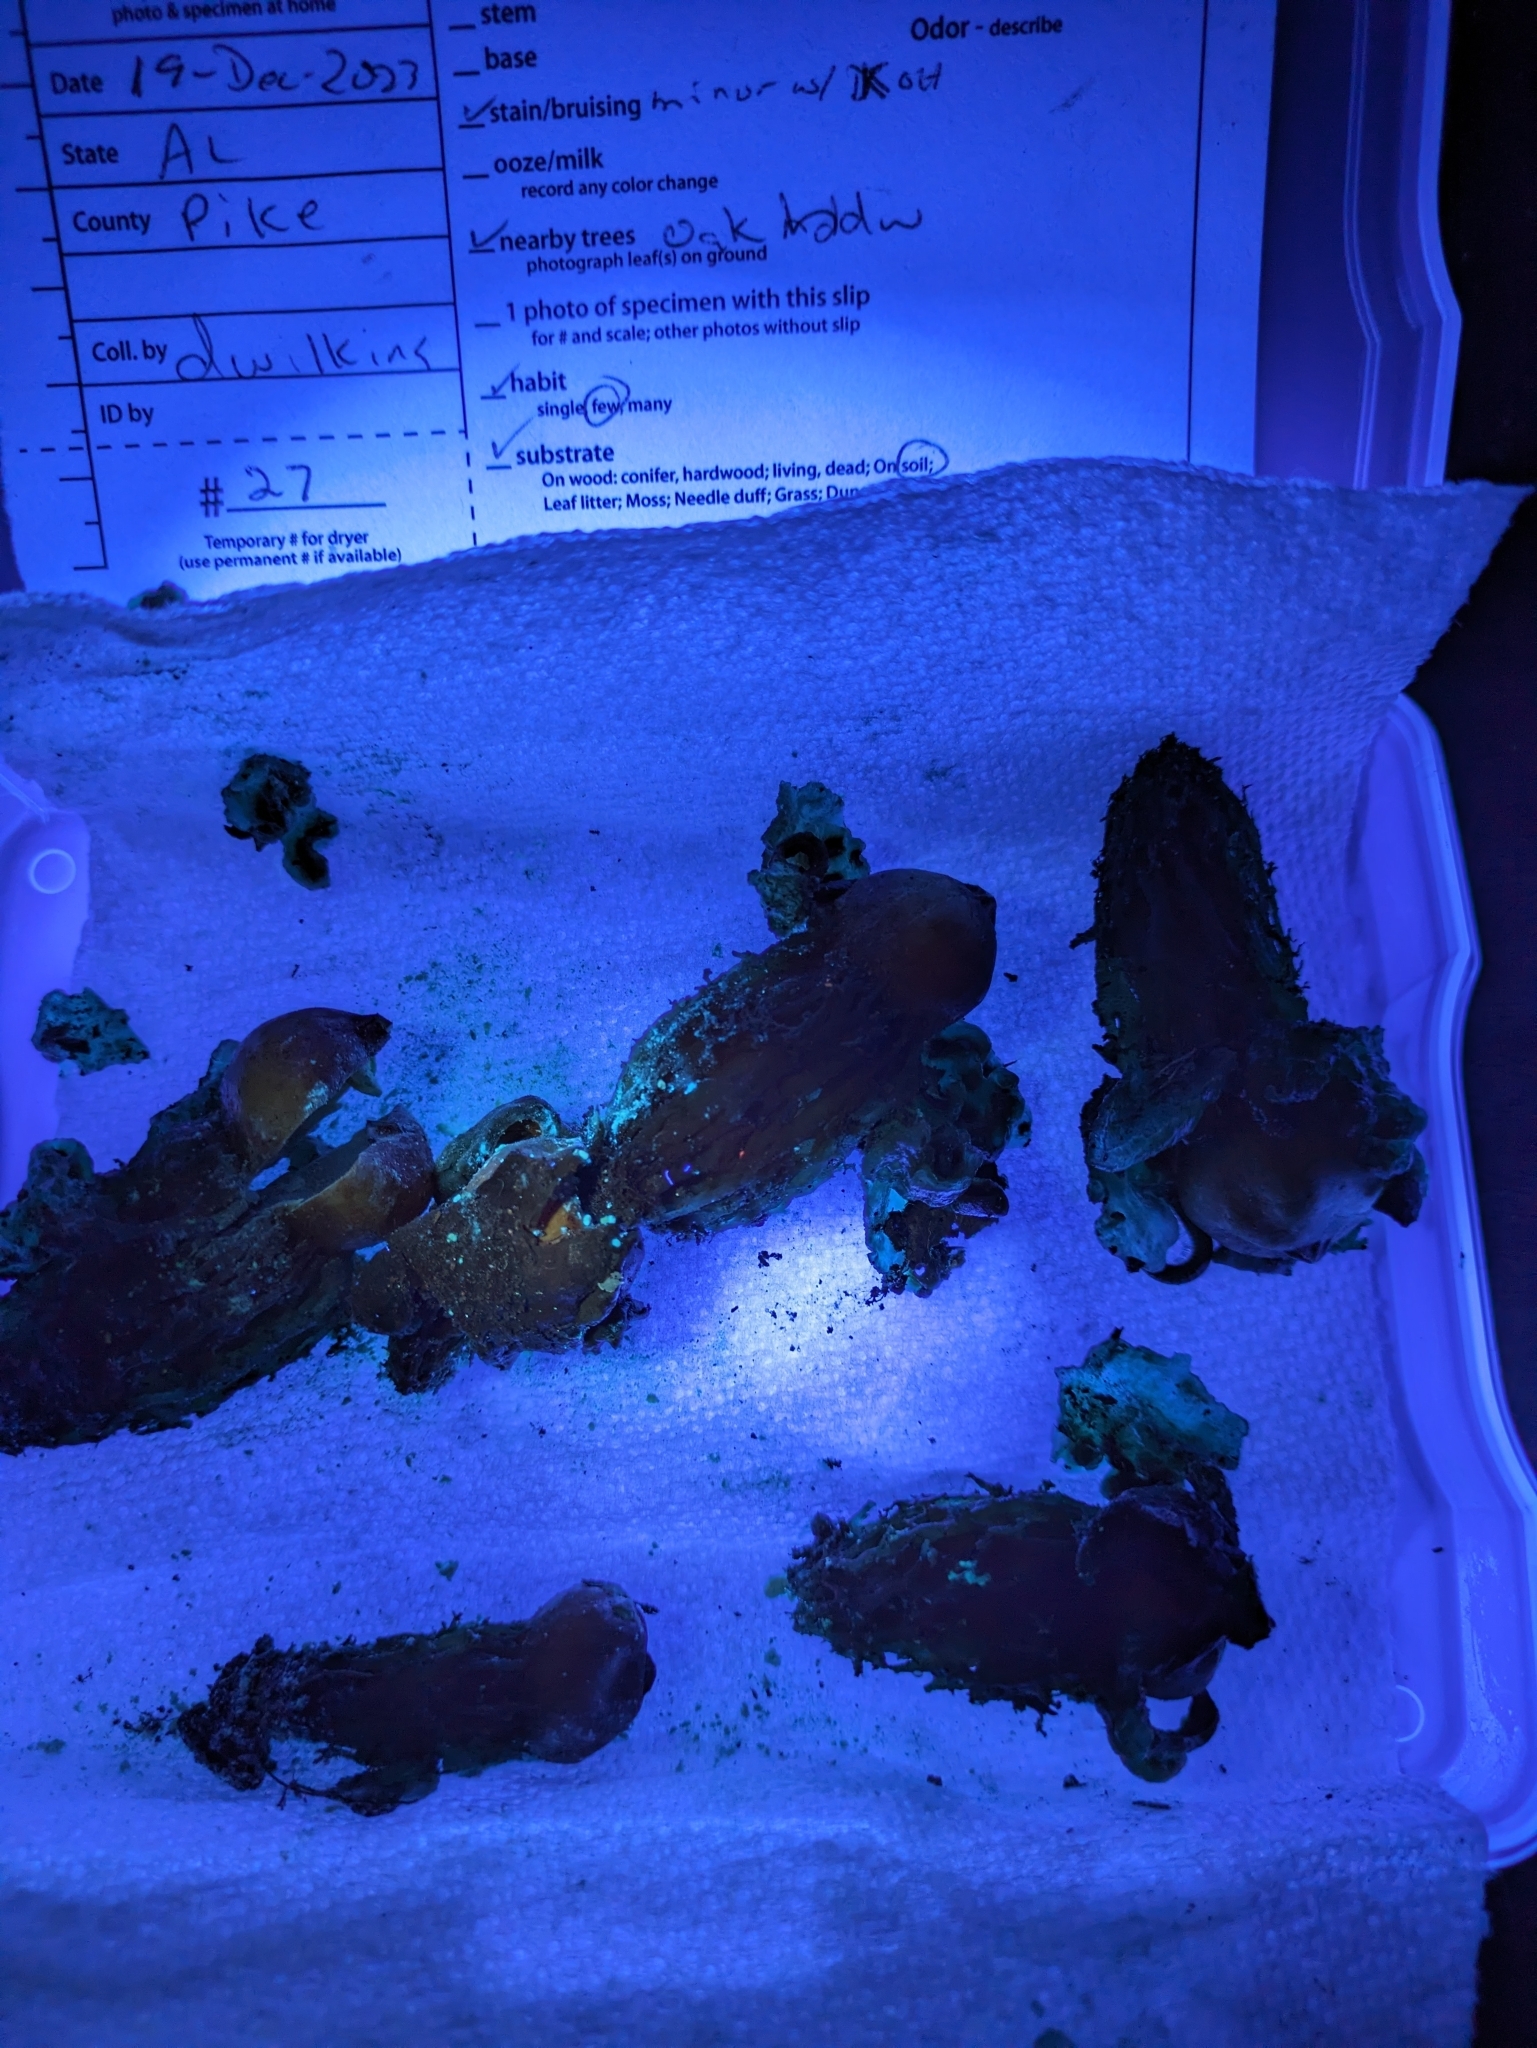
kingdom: Fungi
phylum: Basidiomycota
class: Agaricomycetes
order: Boletales
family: Calostomataceae
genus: Calostoma
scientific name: Calostoma cinnabarinum
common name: Stalked puffball-in-aspic
